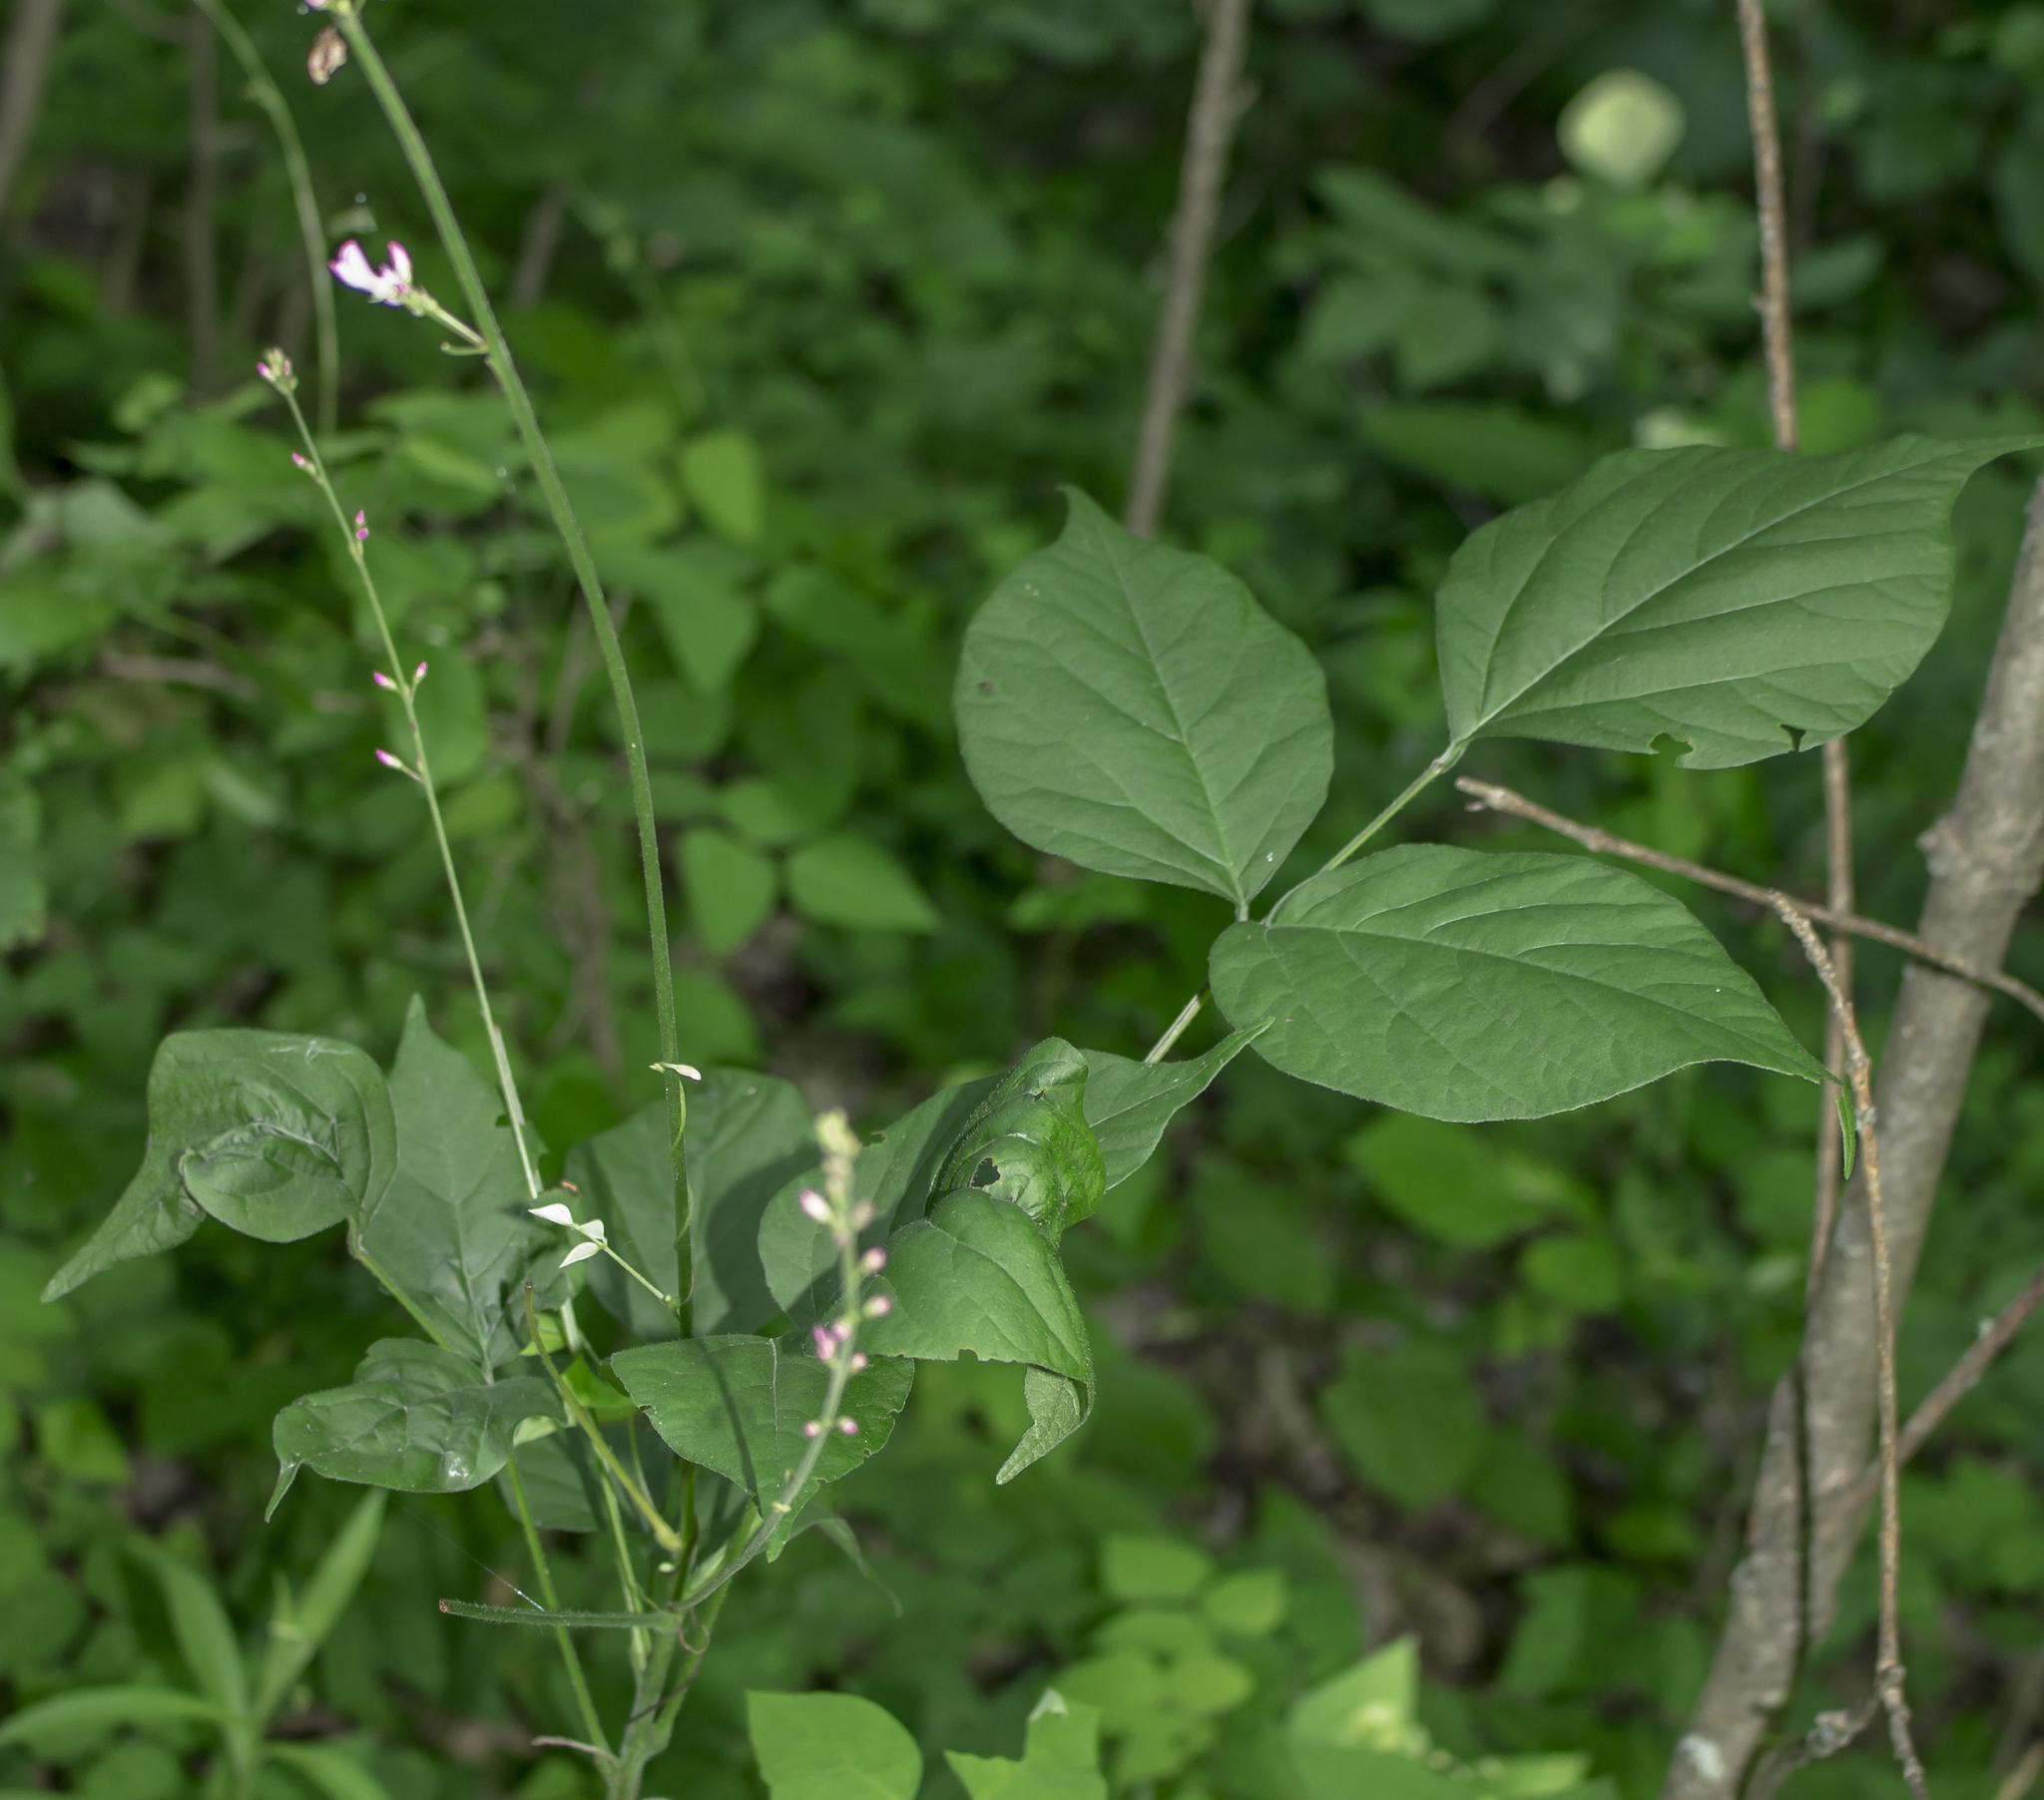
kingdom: Plantae
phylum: Tracheophyta
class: Magnoliopsida
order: Fabales
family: Fabaceae
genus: Hylodesmum
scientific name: Hylodesmum glutinosum
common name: Clustered-leaved tick-trefoil
